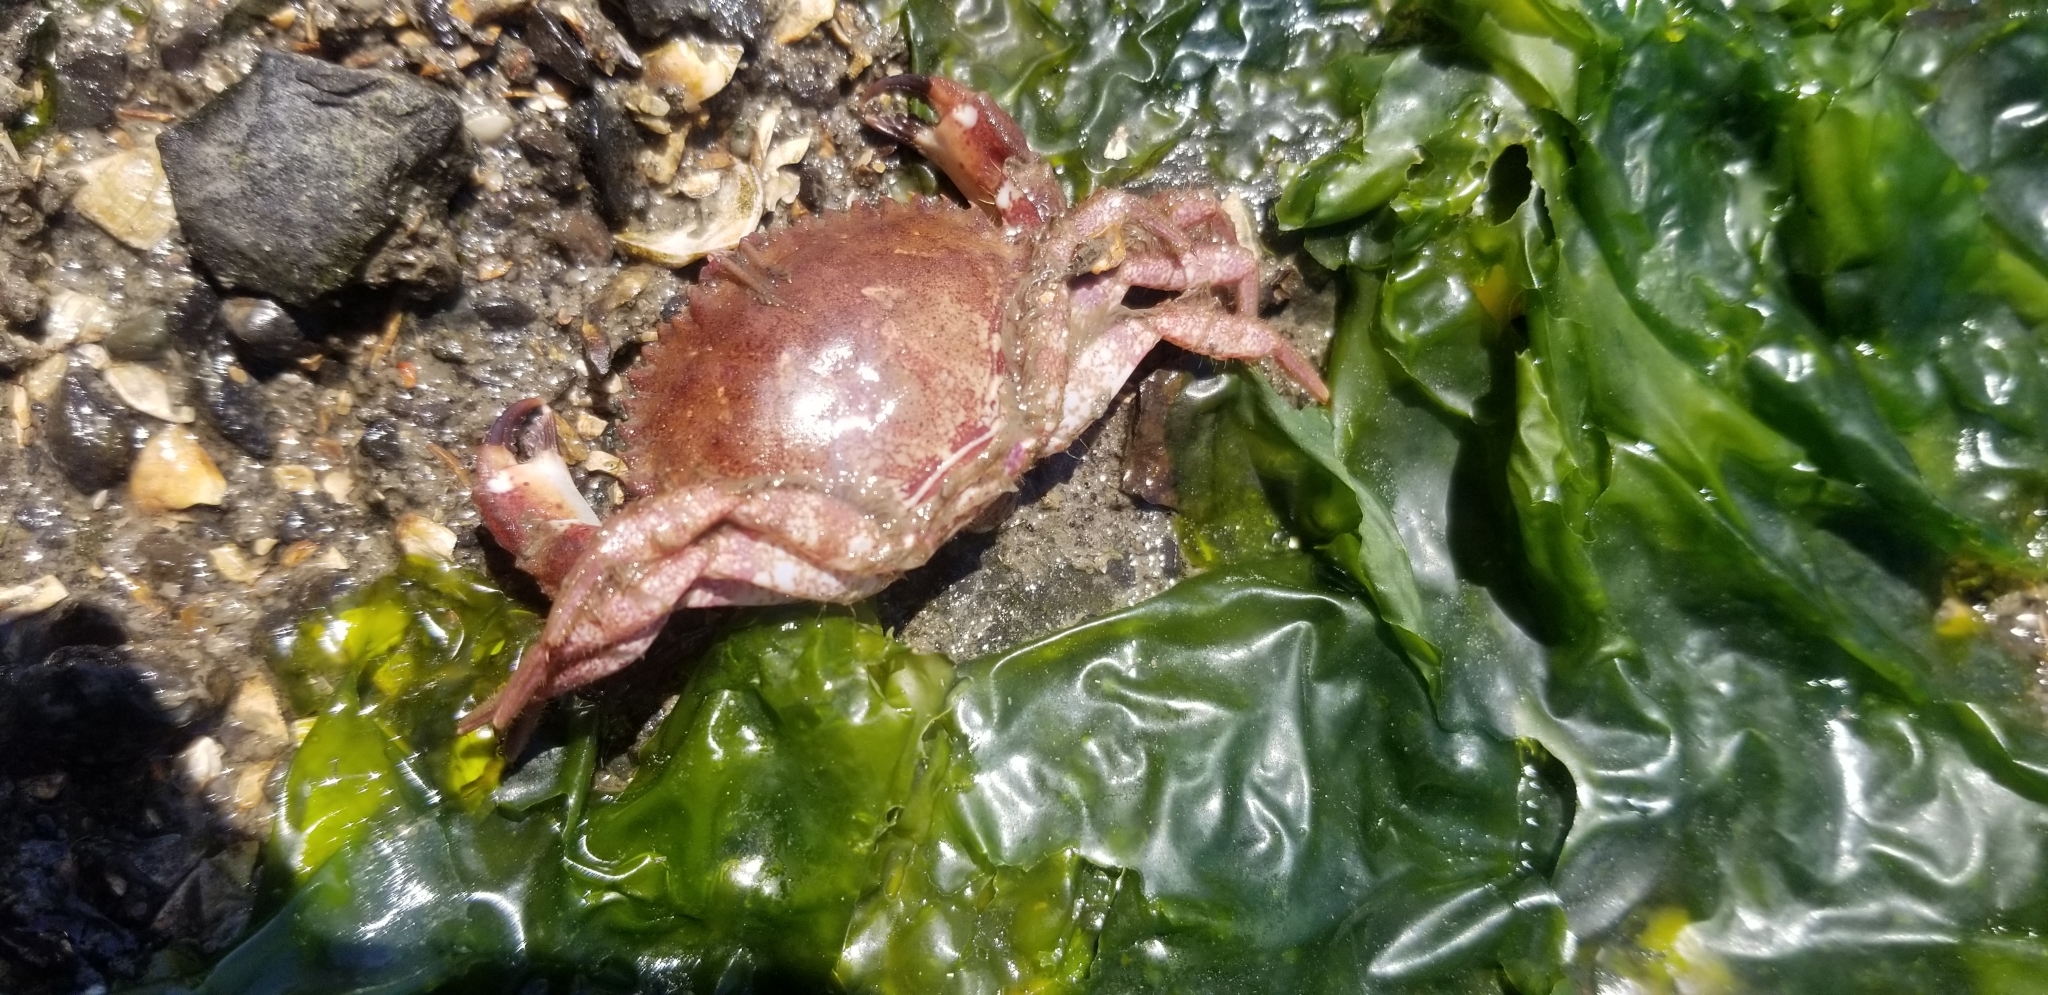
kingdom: Animalia
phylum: Arthropoda
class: Malacostraca
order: Decapoda
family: Cancridae
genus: Romaleon
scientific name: Romaleon antennarium
